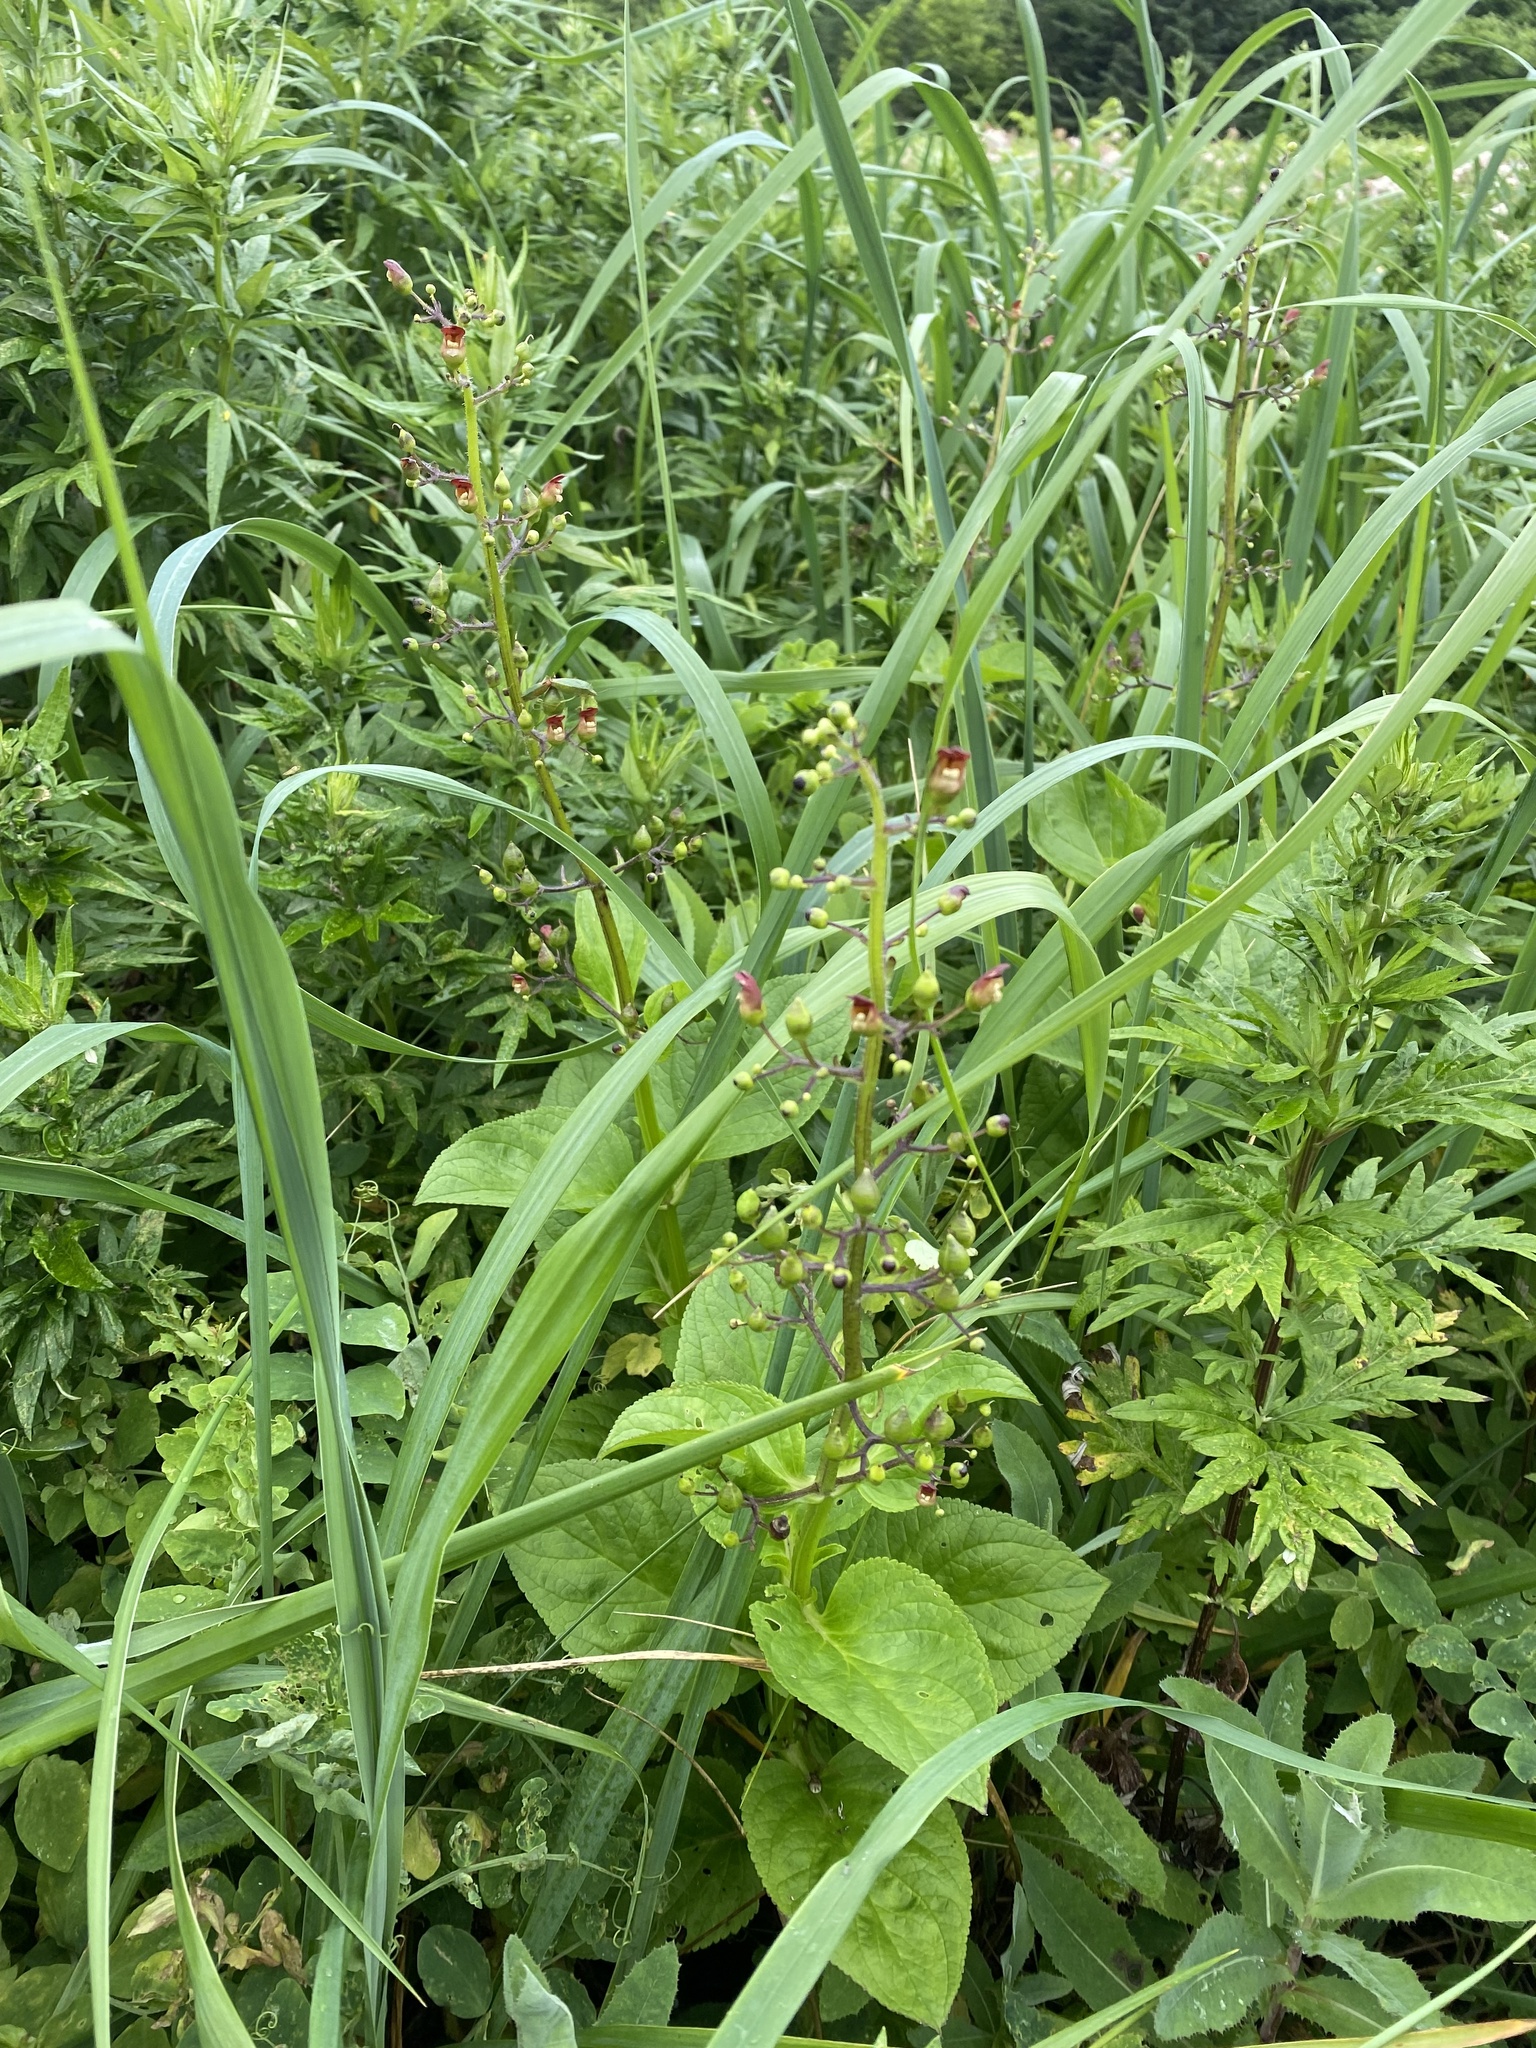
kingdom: Plantae
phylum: Tracheophyta
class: Magnoliopsida
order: Lamiales
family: Scrophulariaceae
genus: Scrophularia
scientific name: Scrophularia alata
